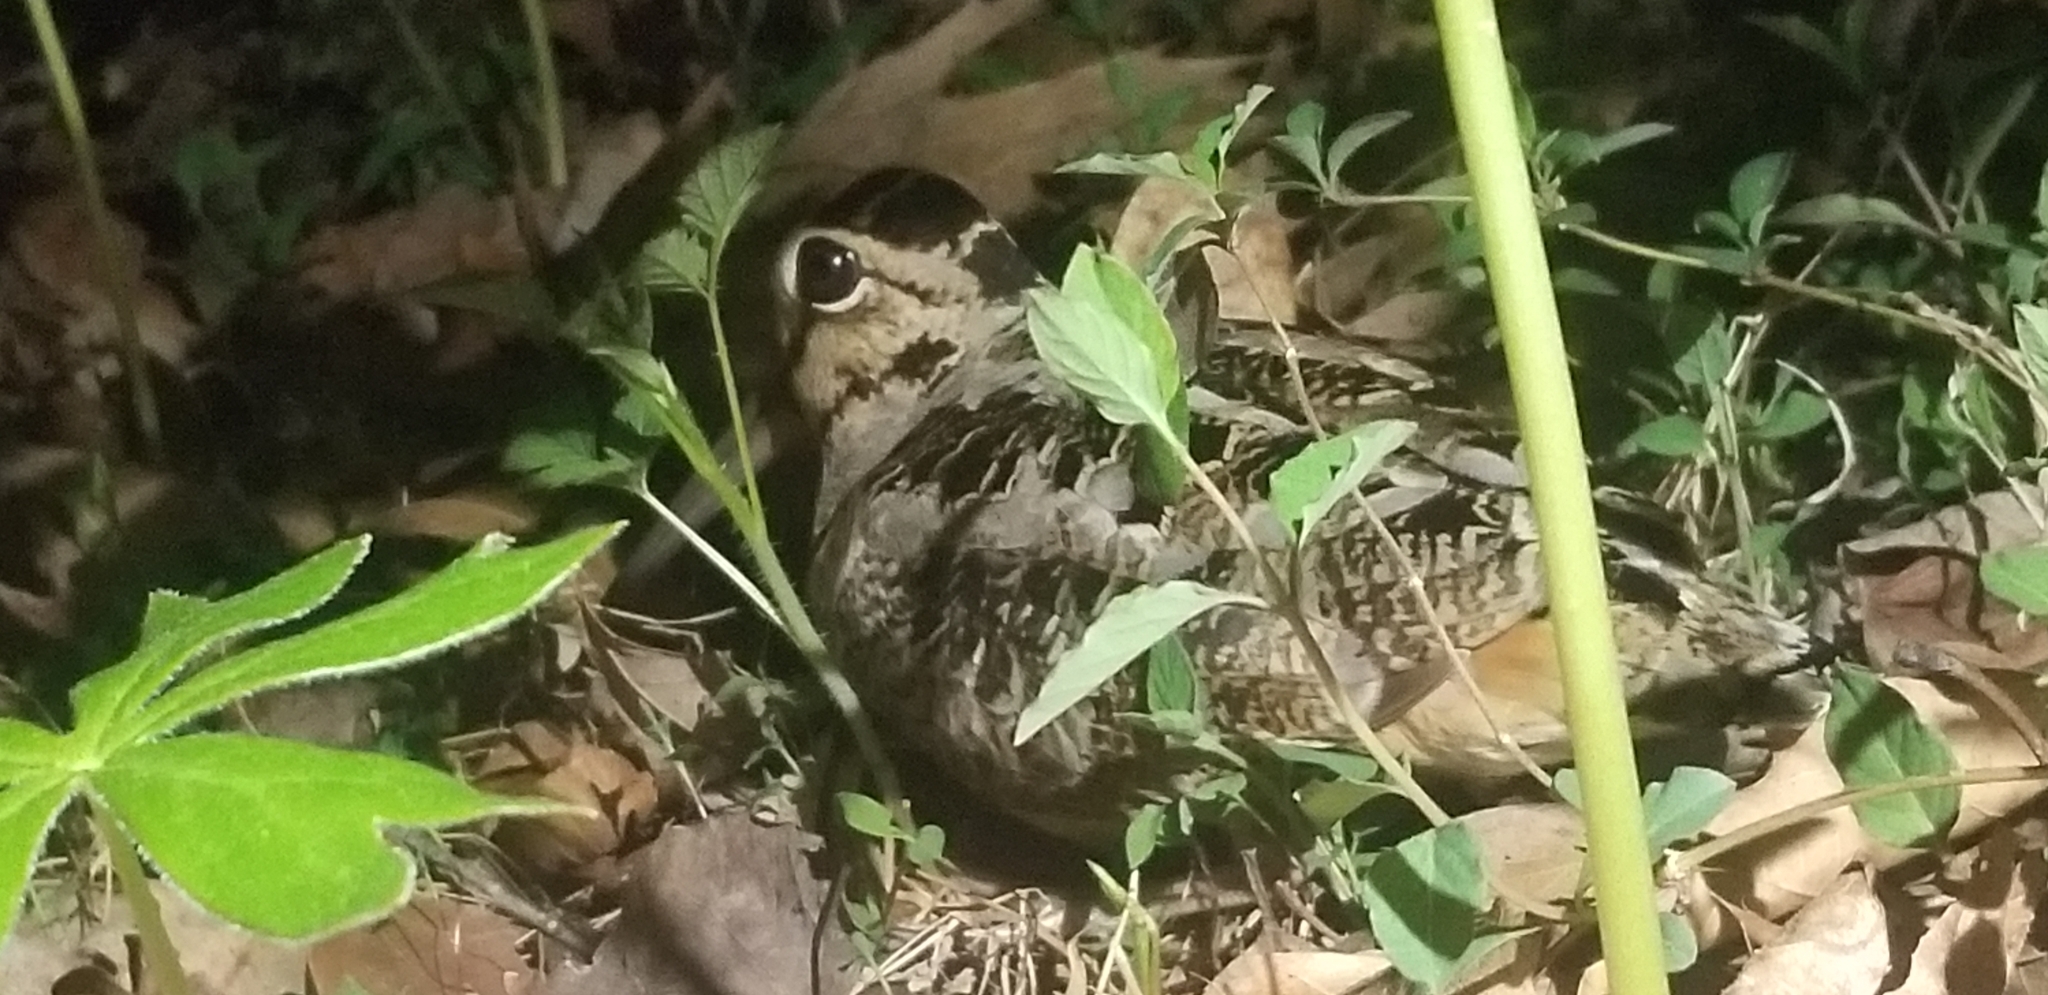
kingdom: Animalia
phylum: Chordata
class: Aves
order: Charadriiformes
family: Scolopacidae
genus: Scolopax
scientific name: Scolopax minor
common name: American woodcock
